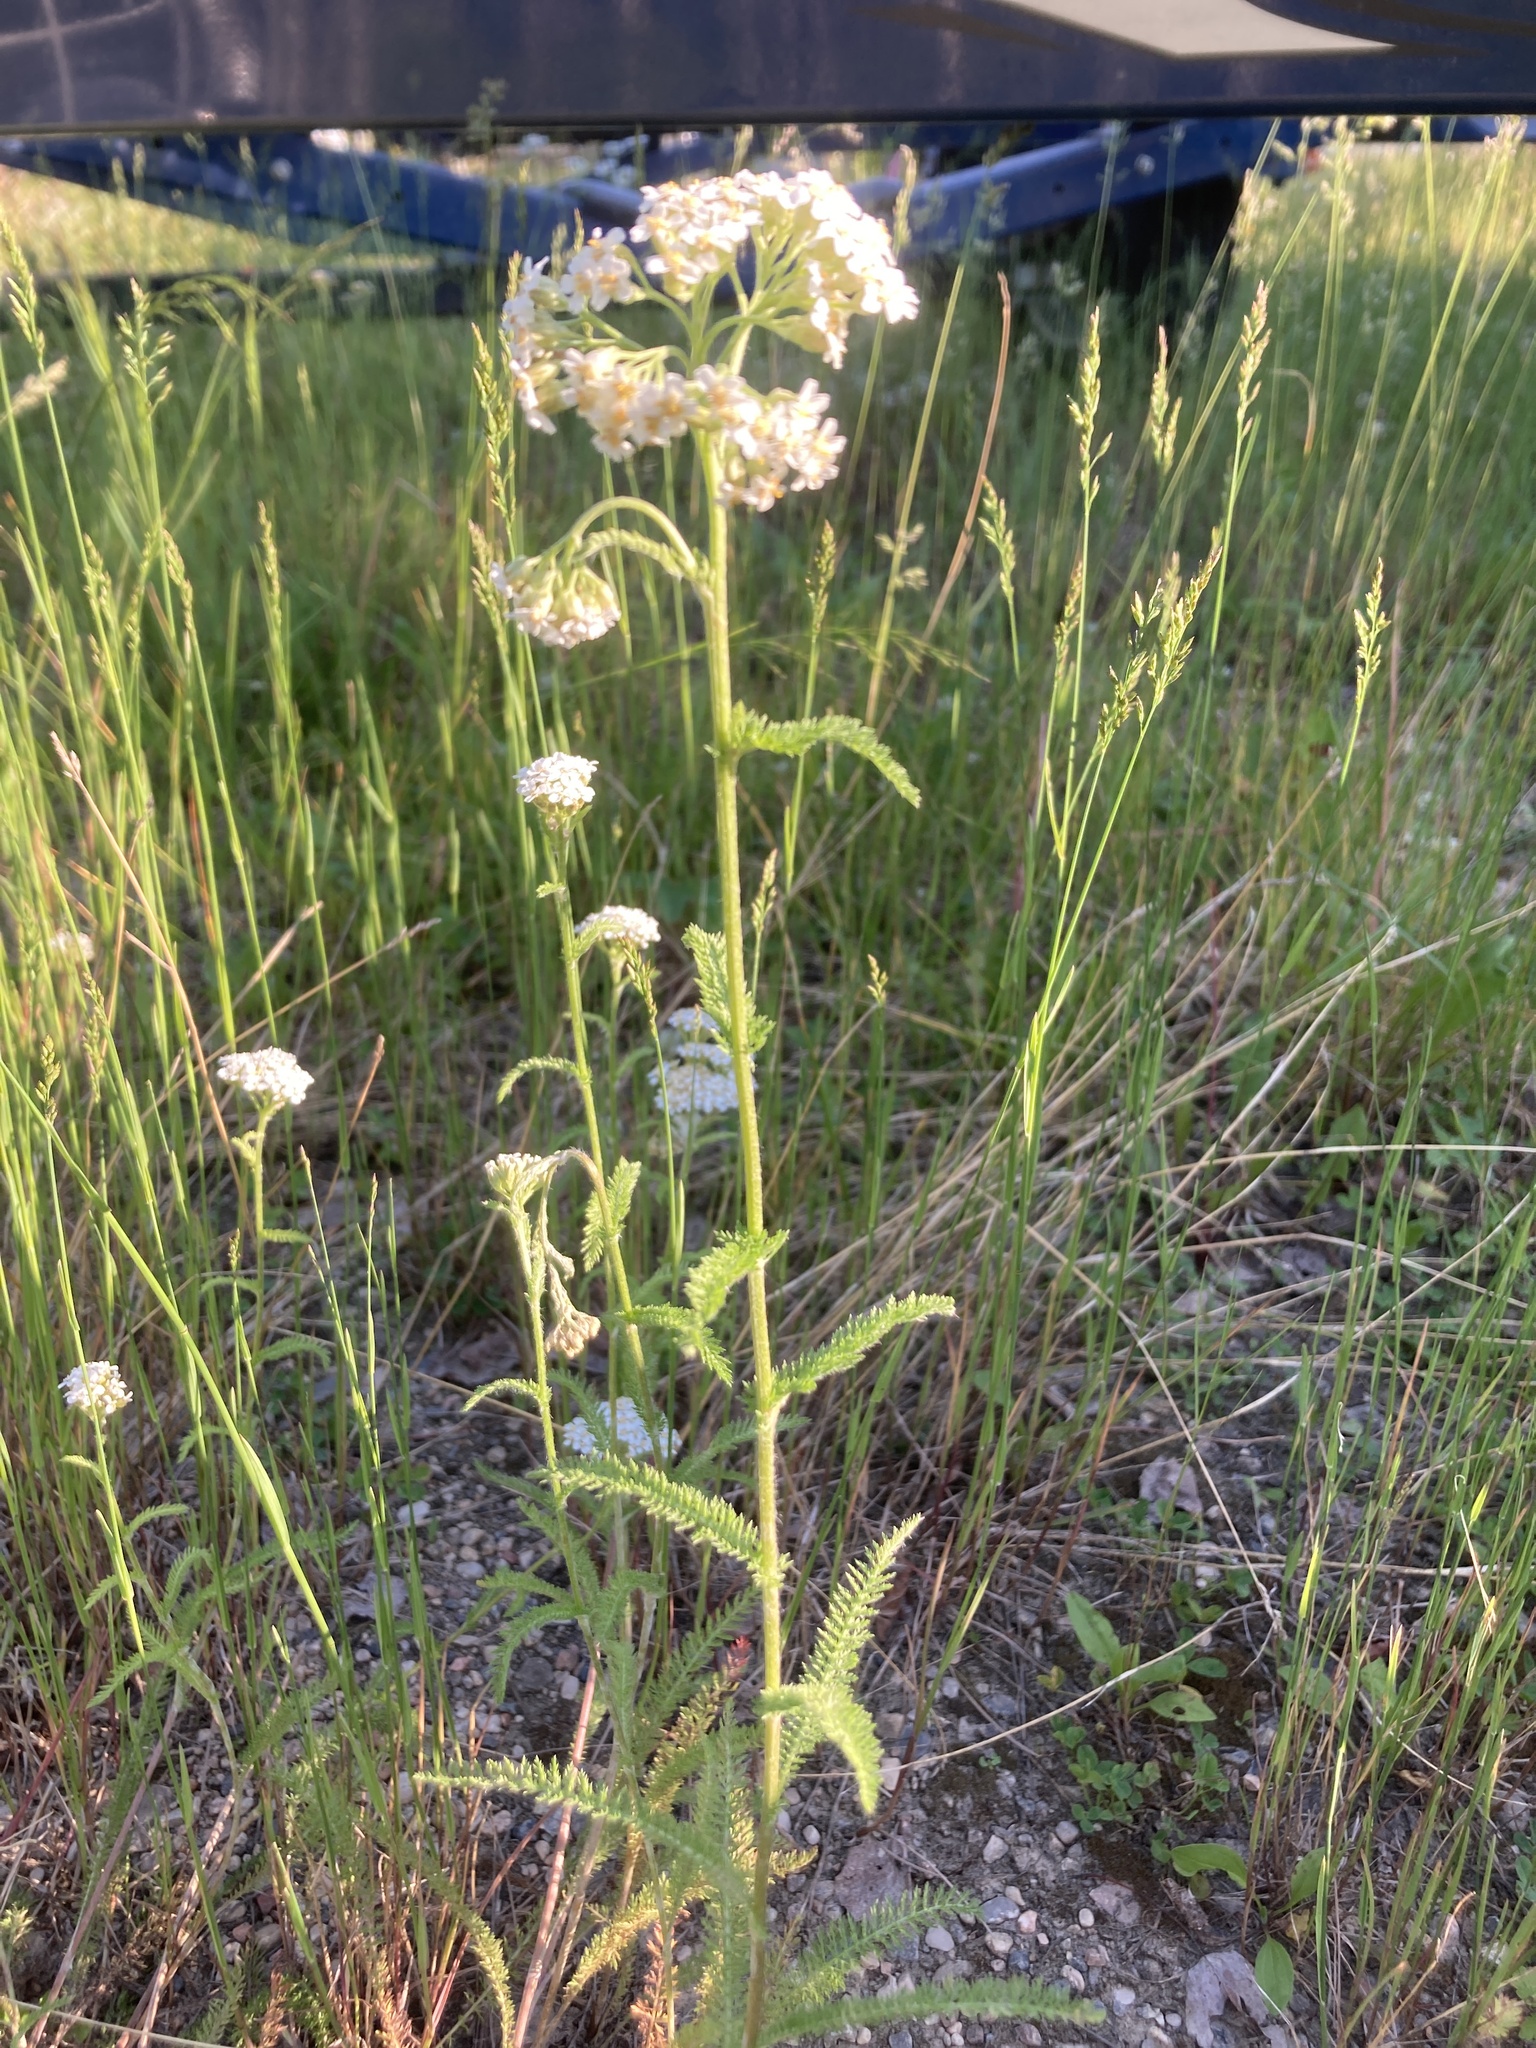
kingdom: Plantae
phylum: Tracheophyta
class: Magnoliopsida
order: Asterales
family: Asteraceae
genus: Achillea
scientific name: Achillea millefolium
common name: Yarrow
